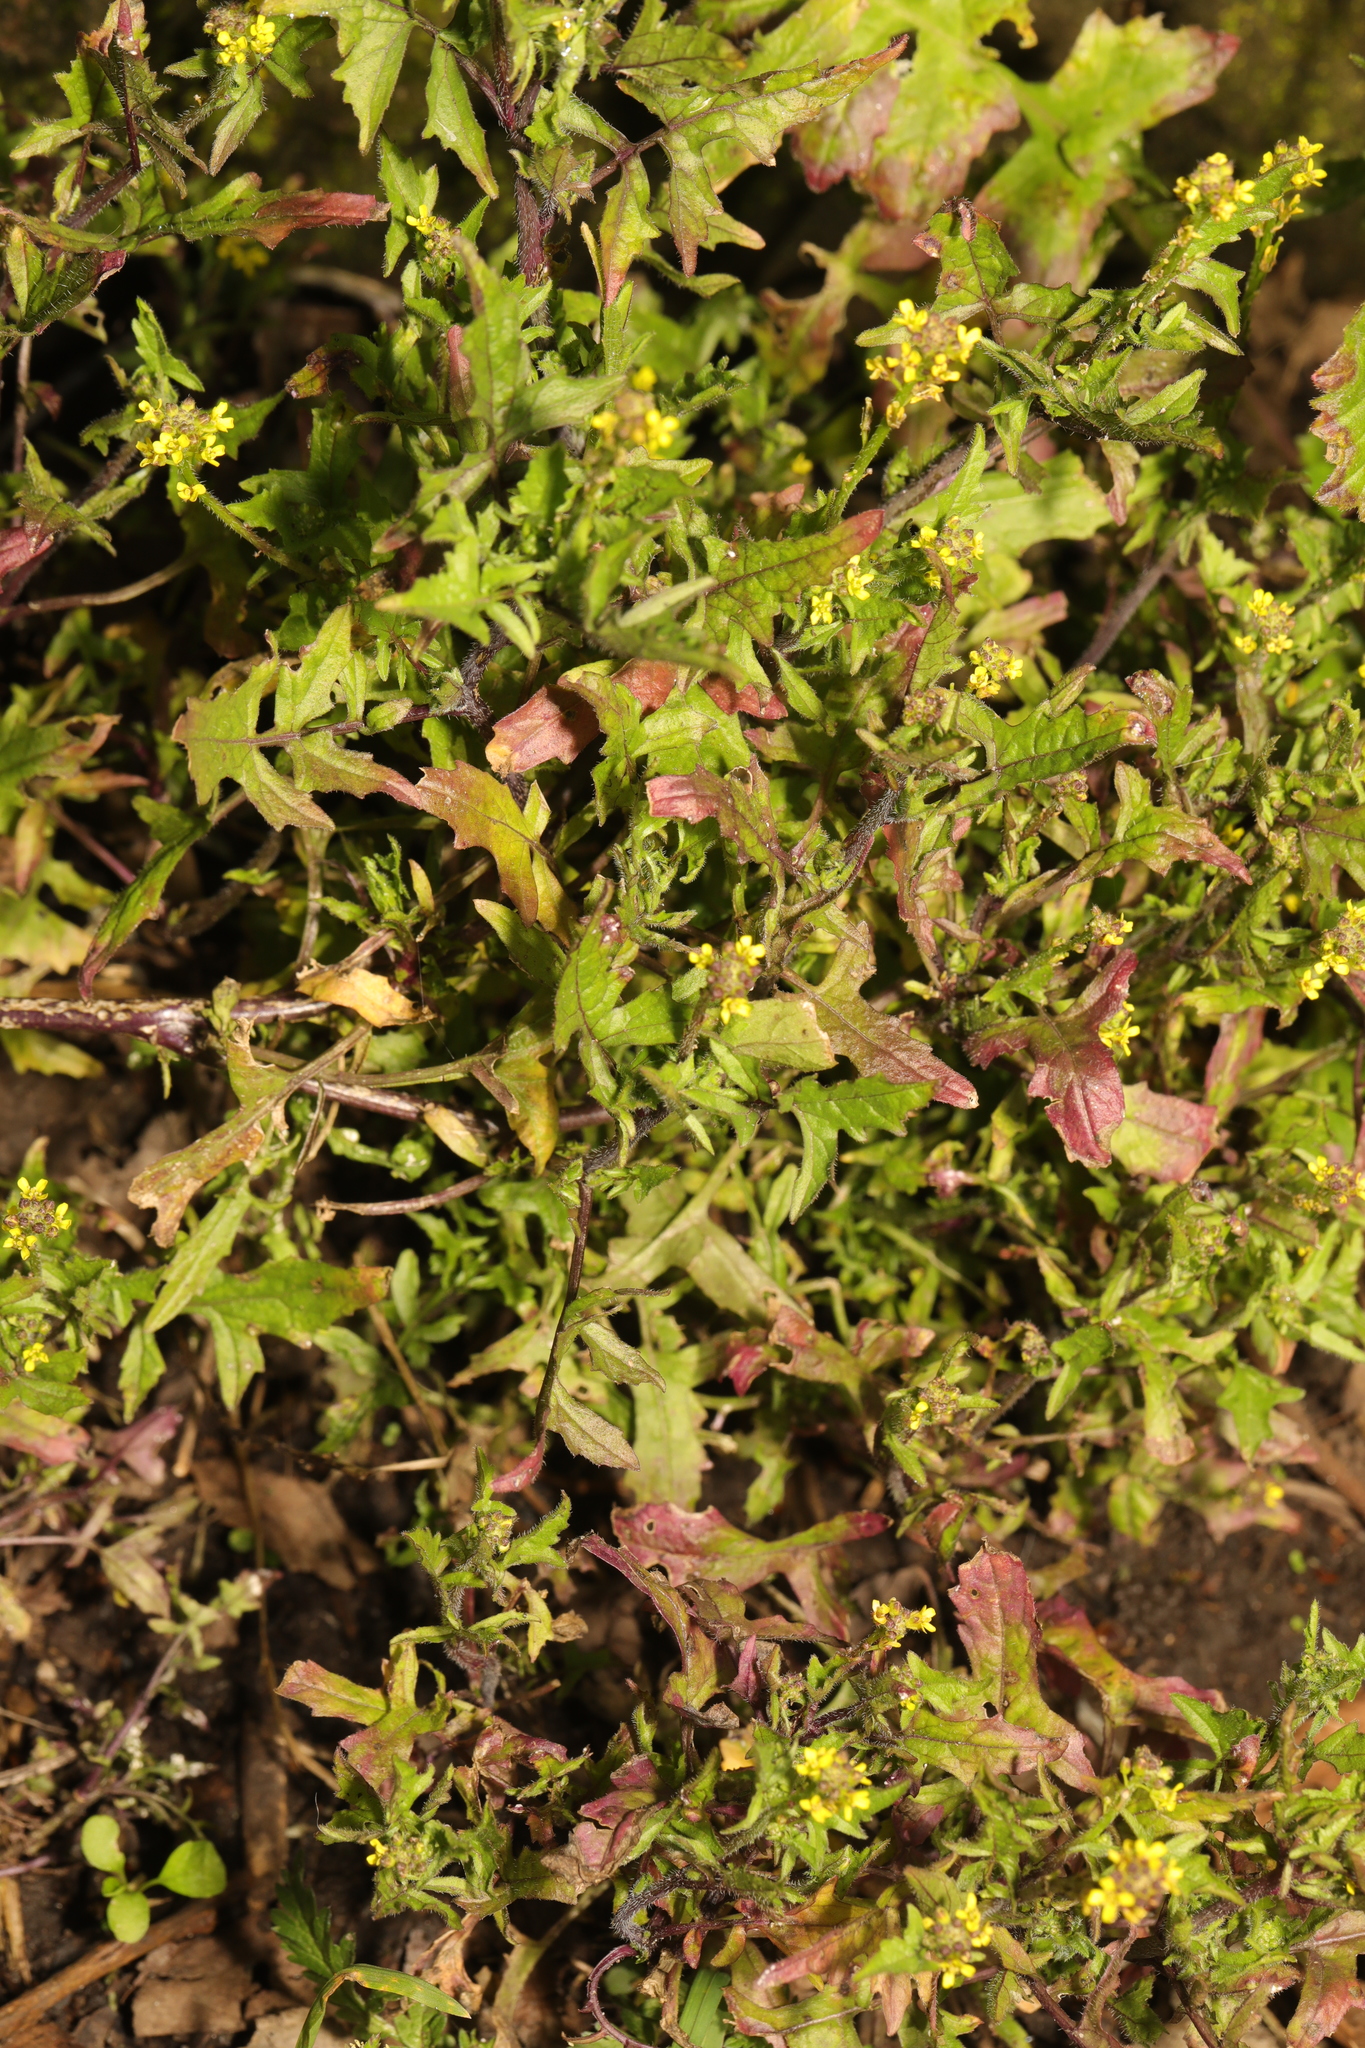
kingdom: Plantae
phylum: Tracheophyta
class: Magnoliopsida
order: Brassicales
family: Brassicaceae
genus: Sisymbrium
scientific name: Sisymbrium officinale
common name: Hedge mustard
